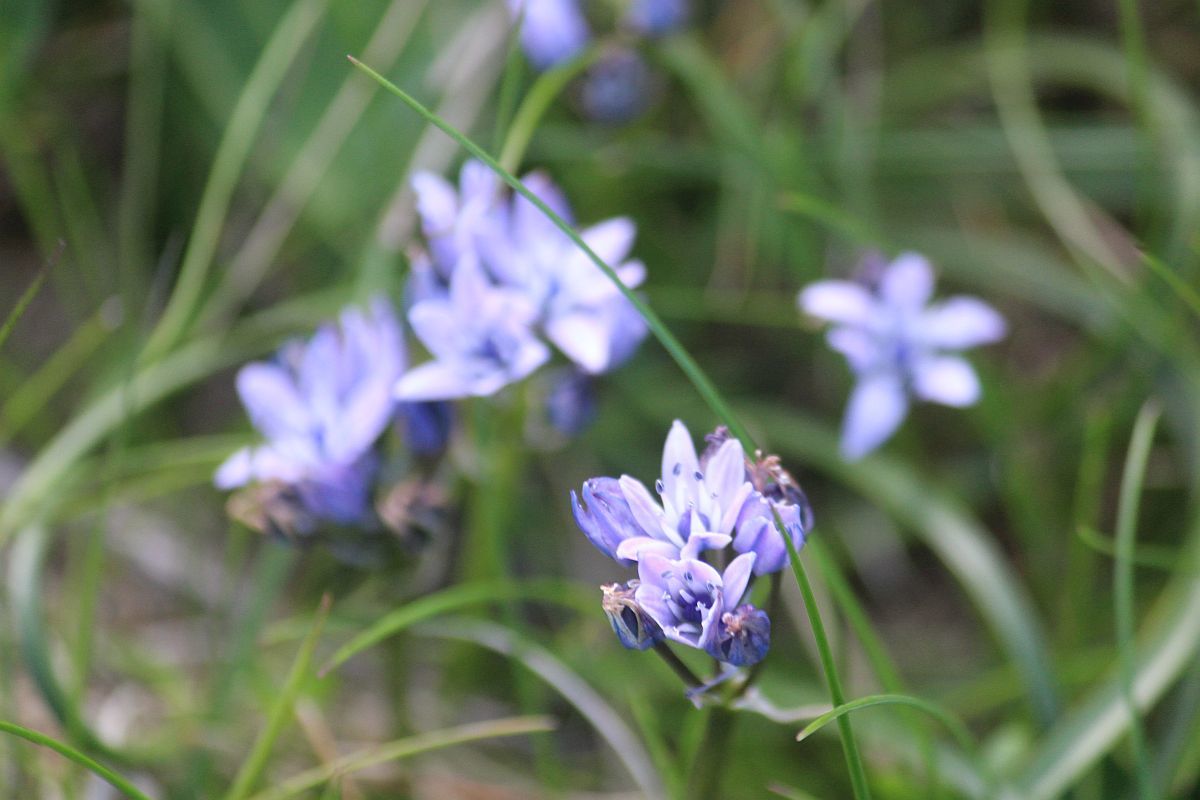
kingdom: Plantae
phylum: Tracheophyta
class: Liliopsida
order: Asparagales
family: Asparagaceae
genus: Scilla
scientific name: Scilla verna
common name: Spring squill
